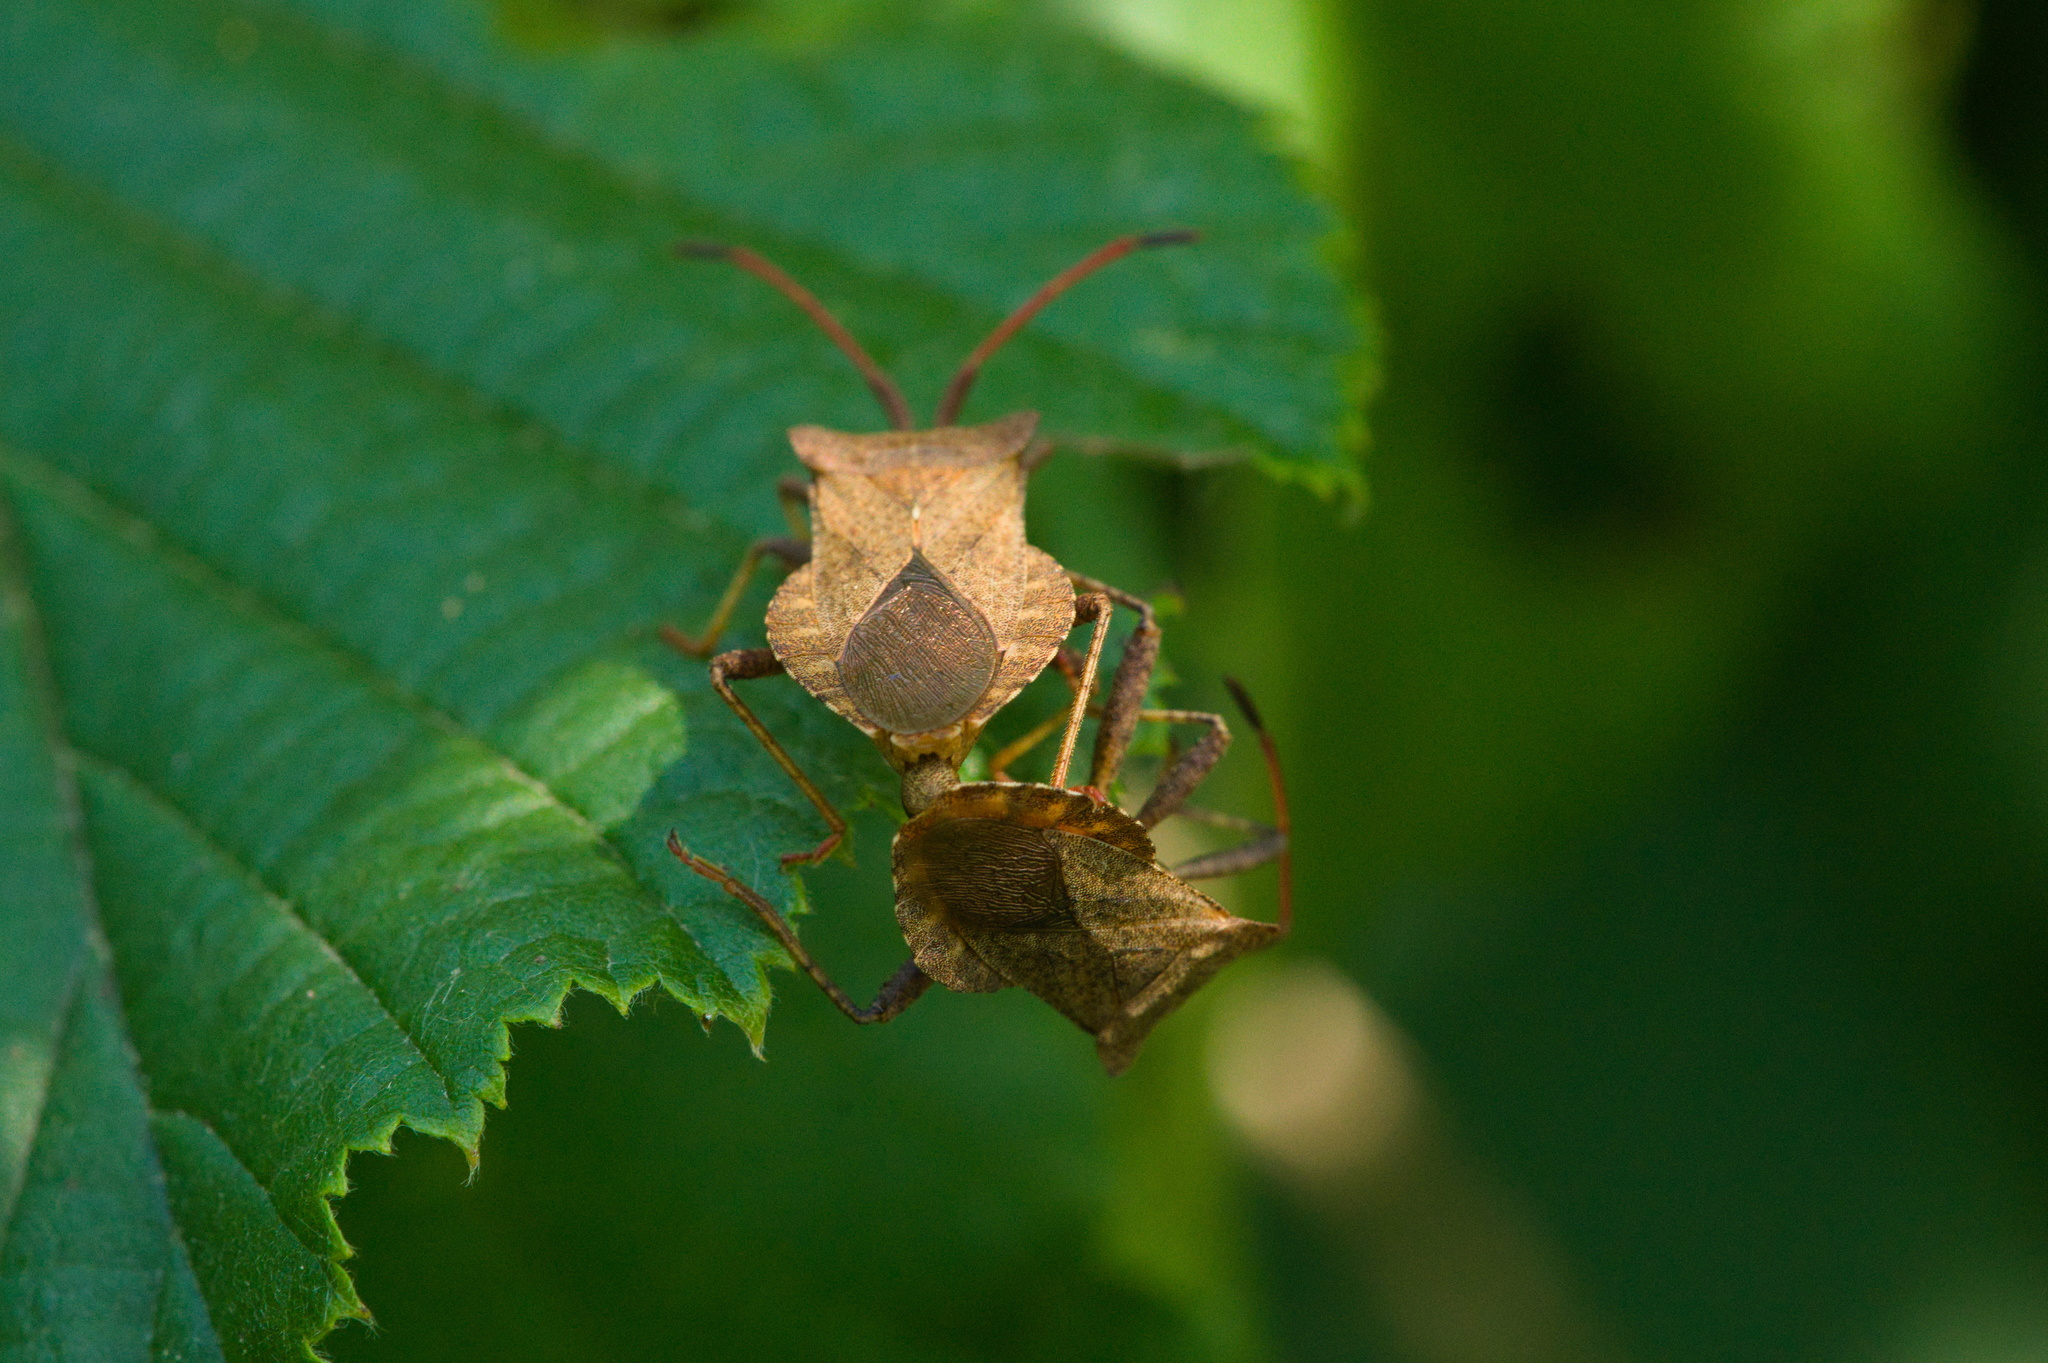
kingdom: Animalia
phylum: Arthropoda
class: Insecta
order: Hemiptera
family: Coreidae
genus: Coreus
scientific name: Coreus marginatus
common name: Dock bug
